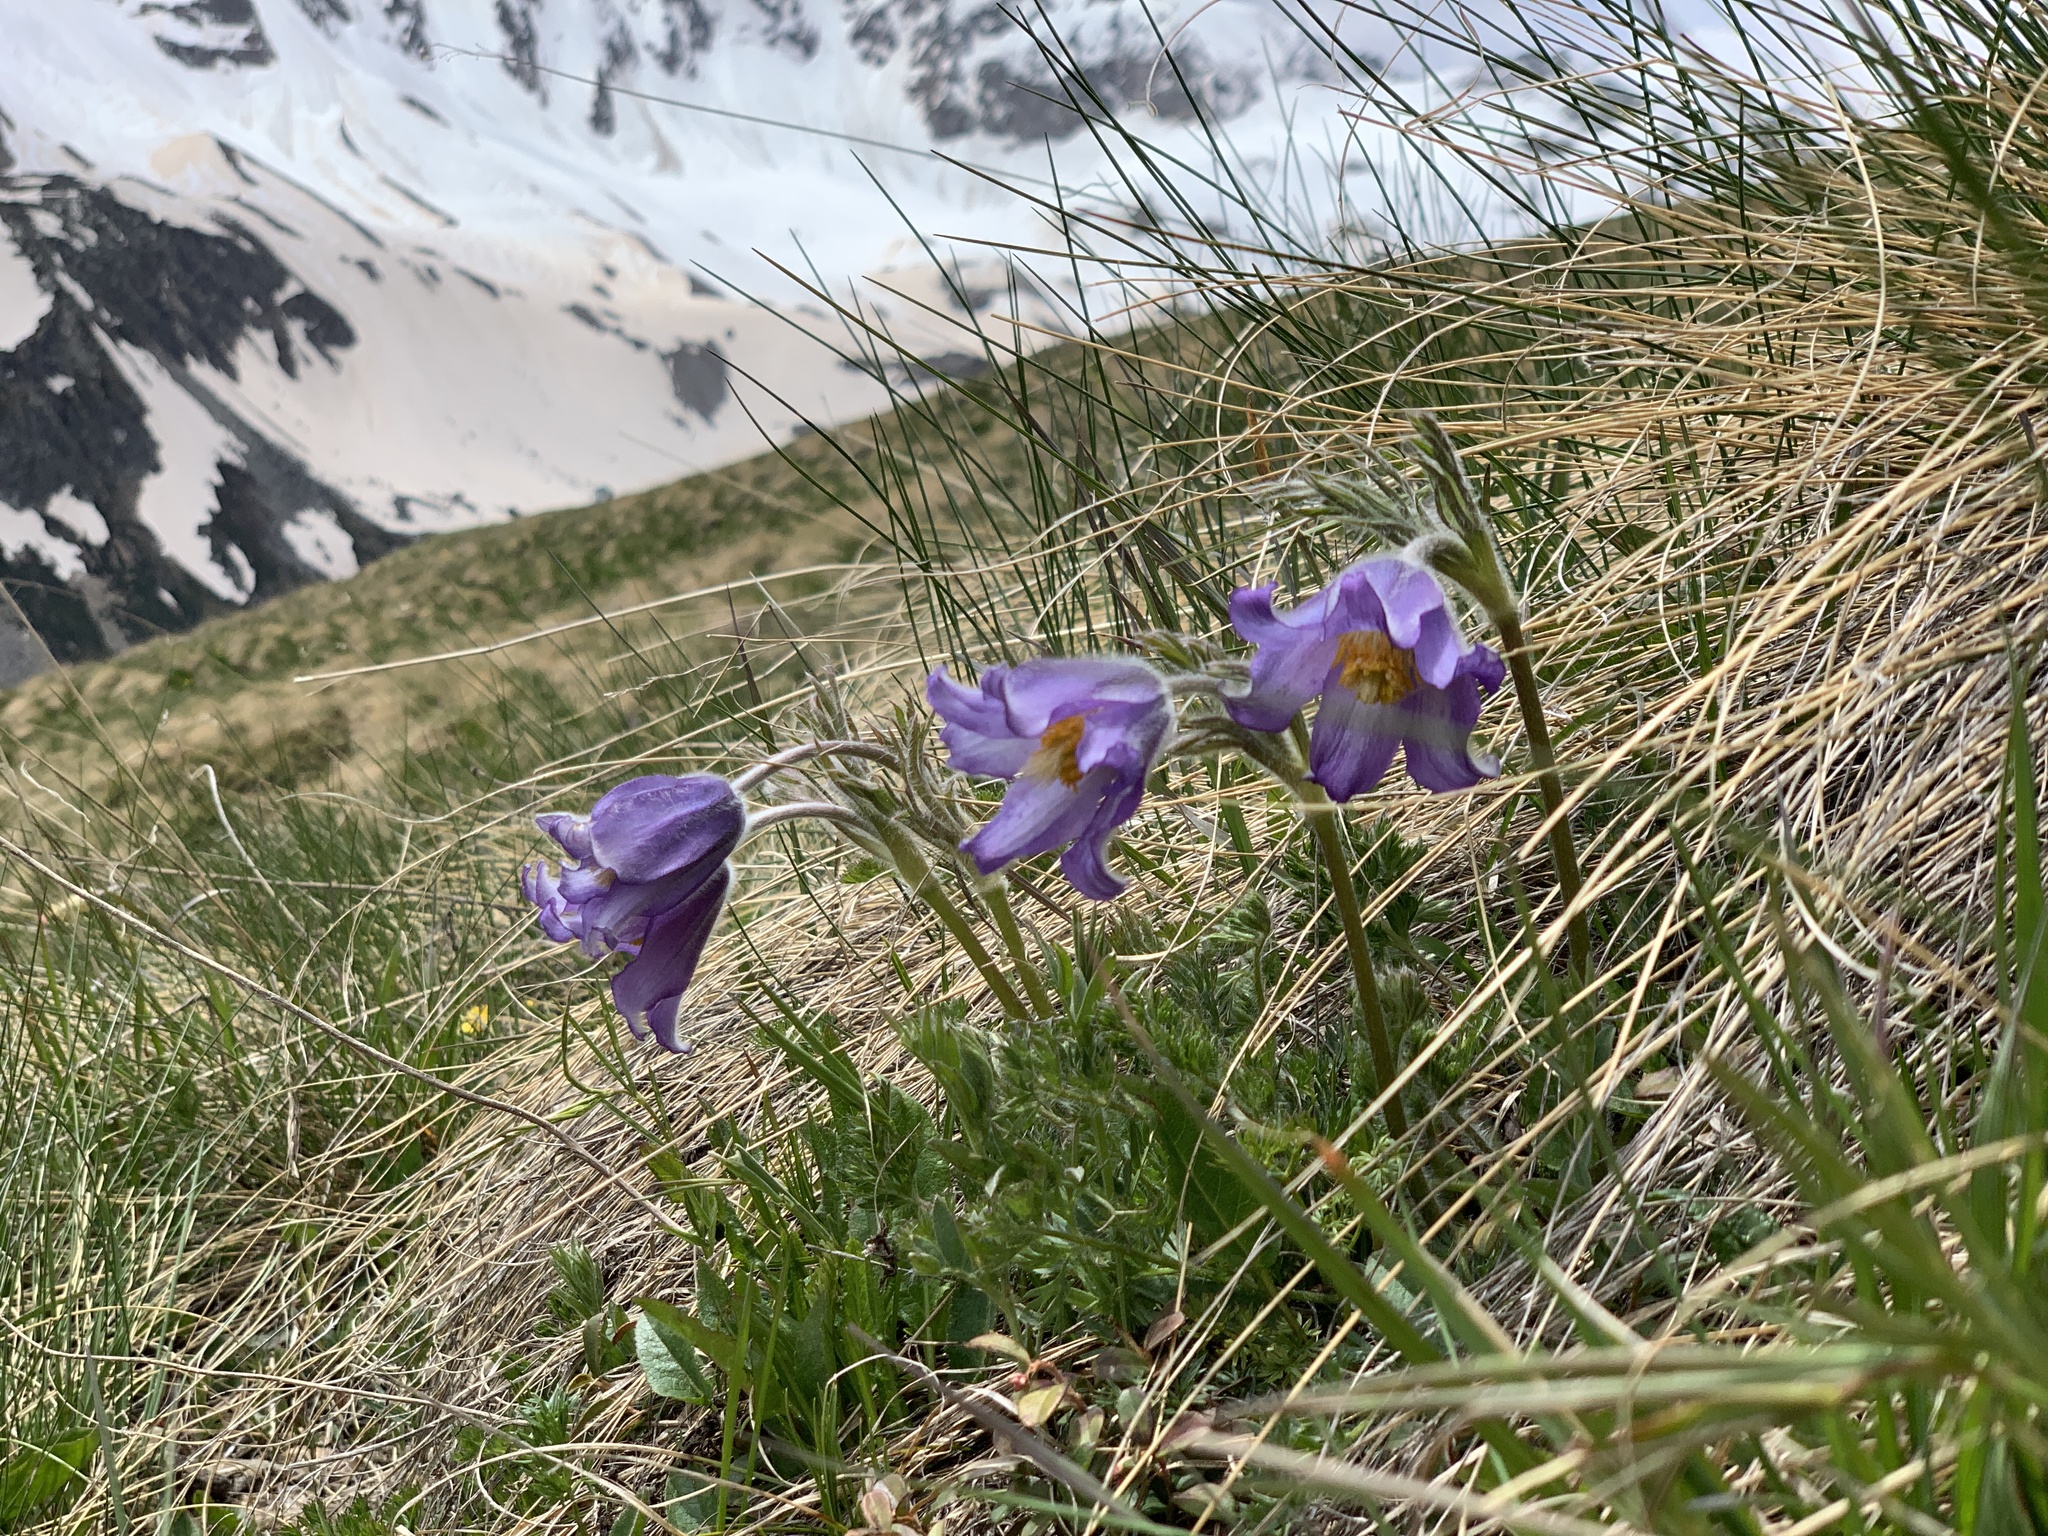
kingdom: Plantae
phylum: Tracheophyta
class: Magnoliopsida
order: Ranunculales
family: Ranunculaceae
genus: Pulsatilla
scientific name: Pulsatilla violacea
